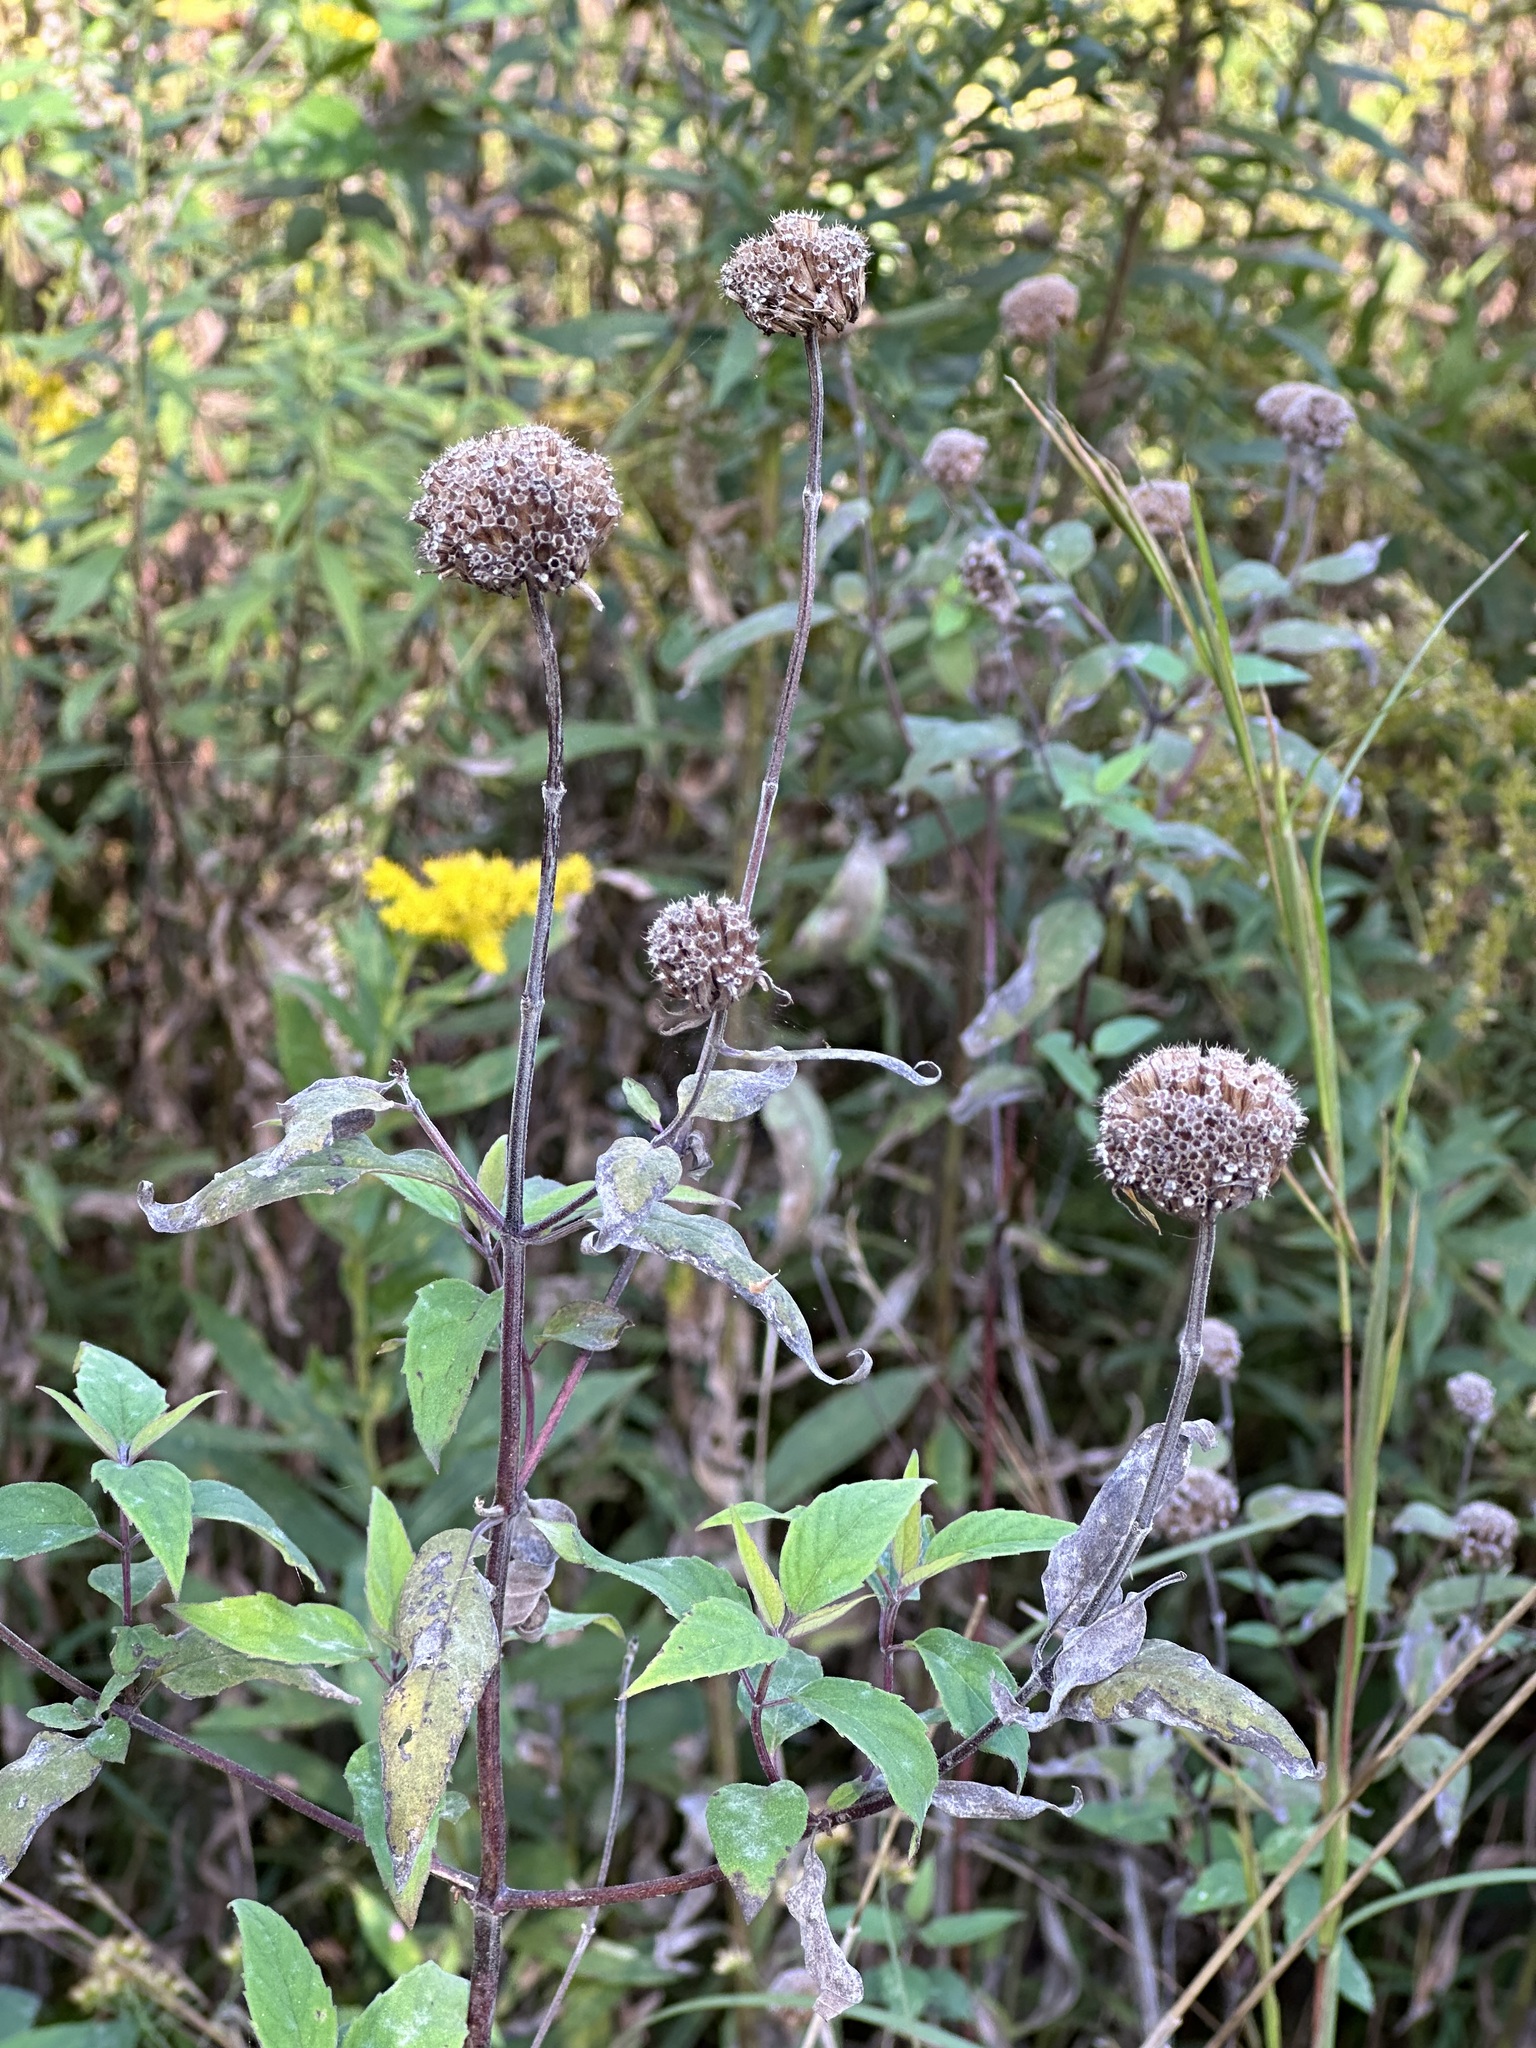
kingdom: Plantae
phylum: Tracheophyta
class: Magnoliopsida
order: Lamiales
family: Lamiaceae
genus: Monarda
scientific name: Monarda fistulosa
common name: Purple beebalm
